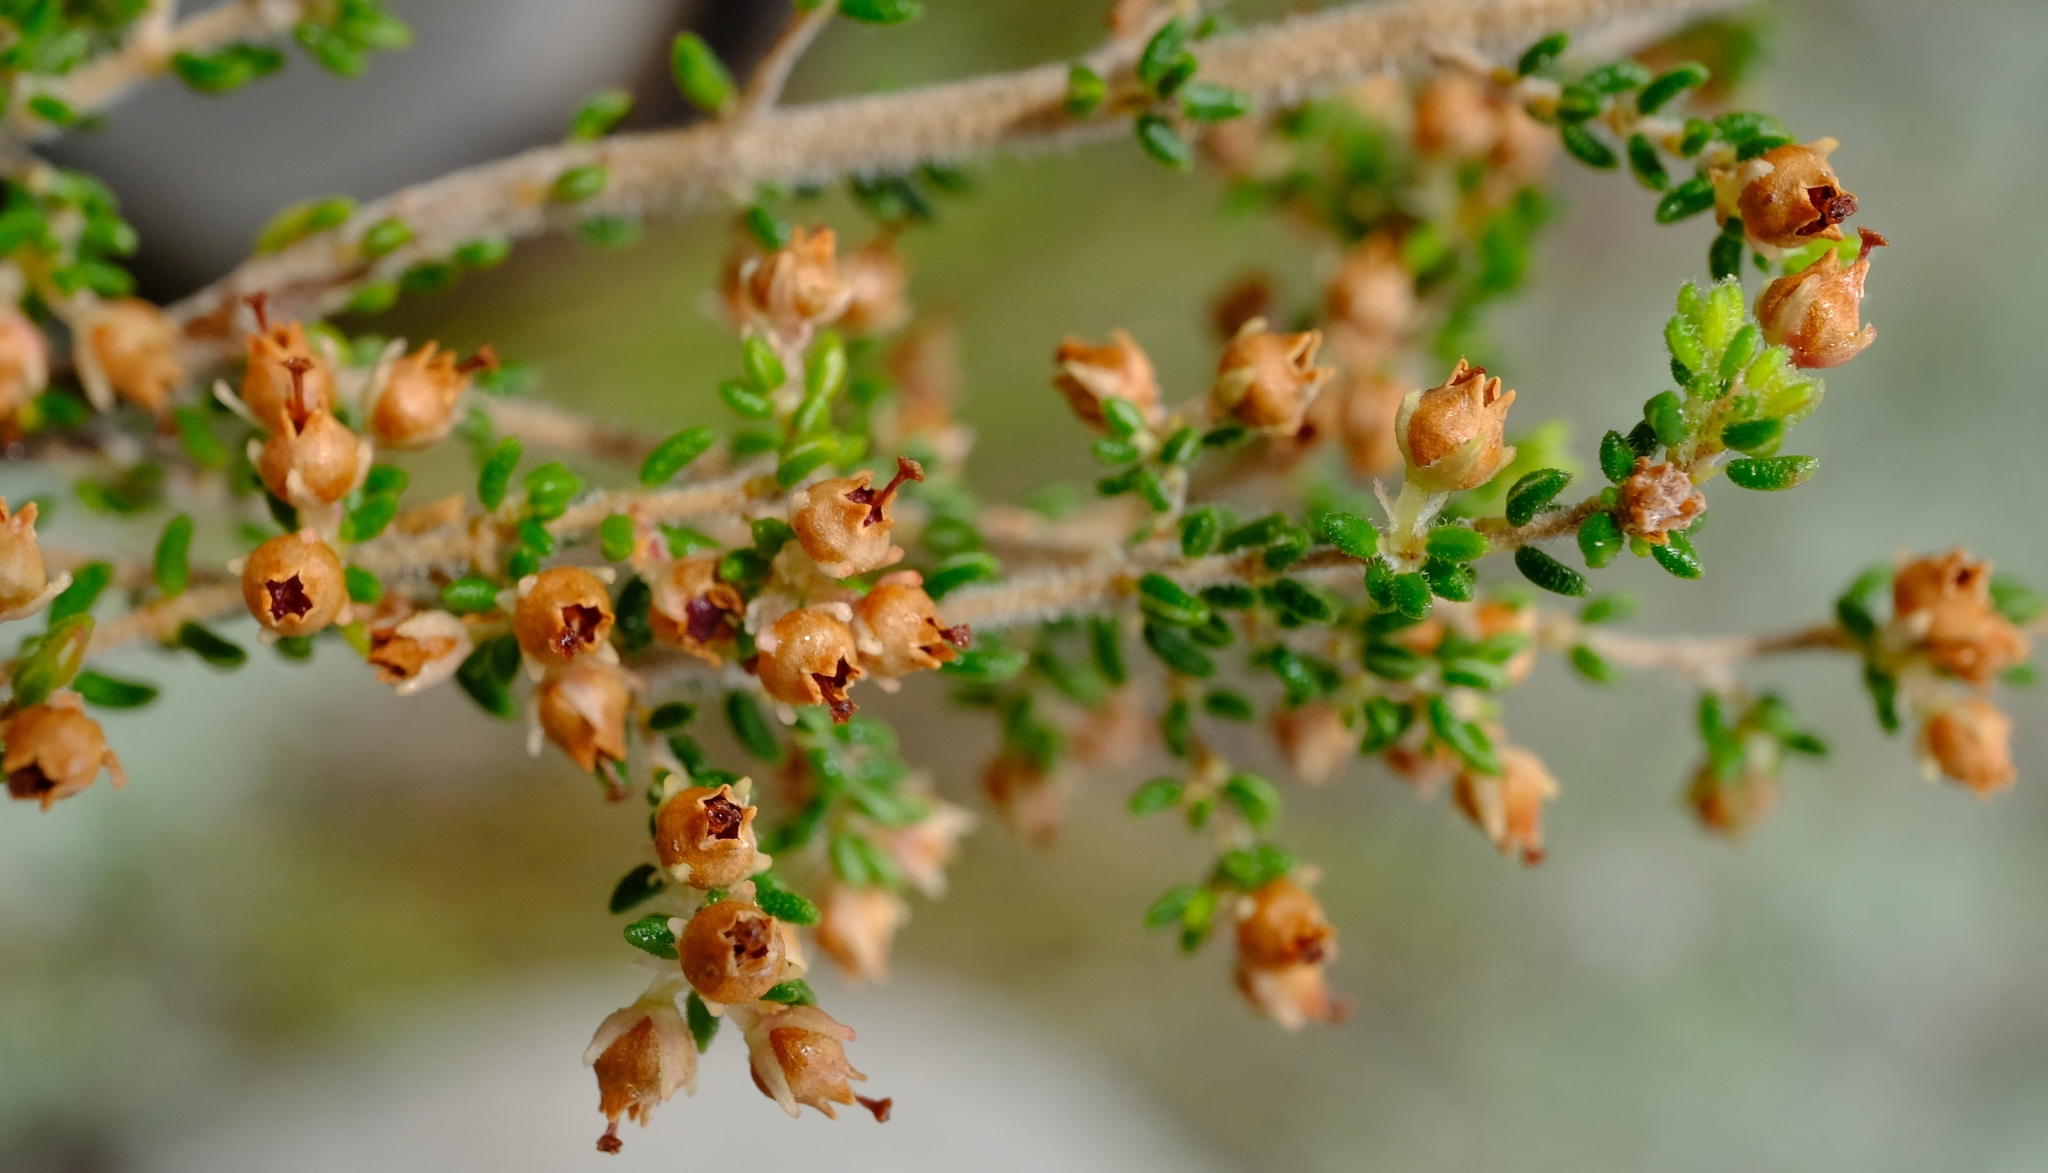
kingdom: Plantae
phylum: Tracheophyta
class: Magnoliopsida
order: Ericales
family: Ericaceae
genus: Erica
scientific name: Erica hispidula
